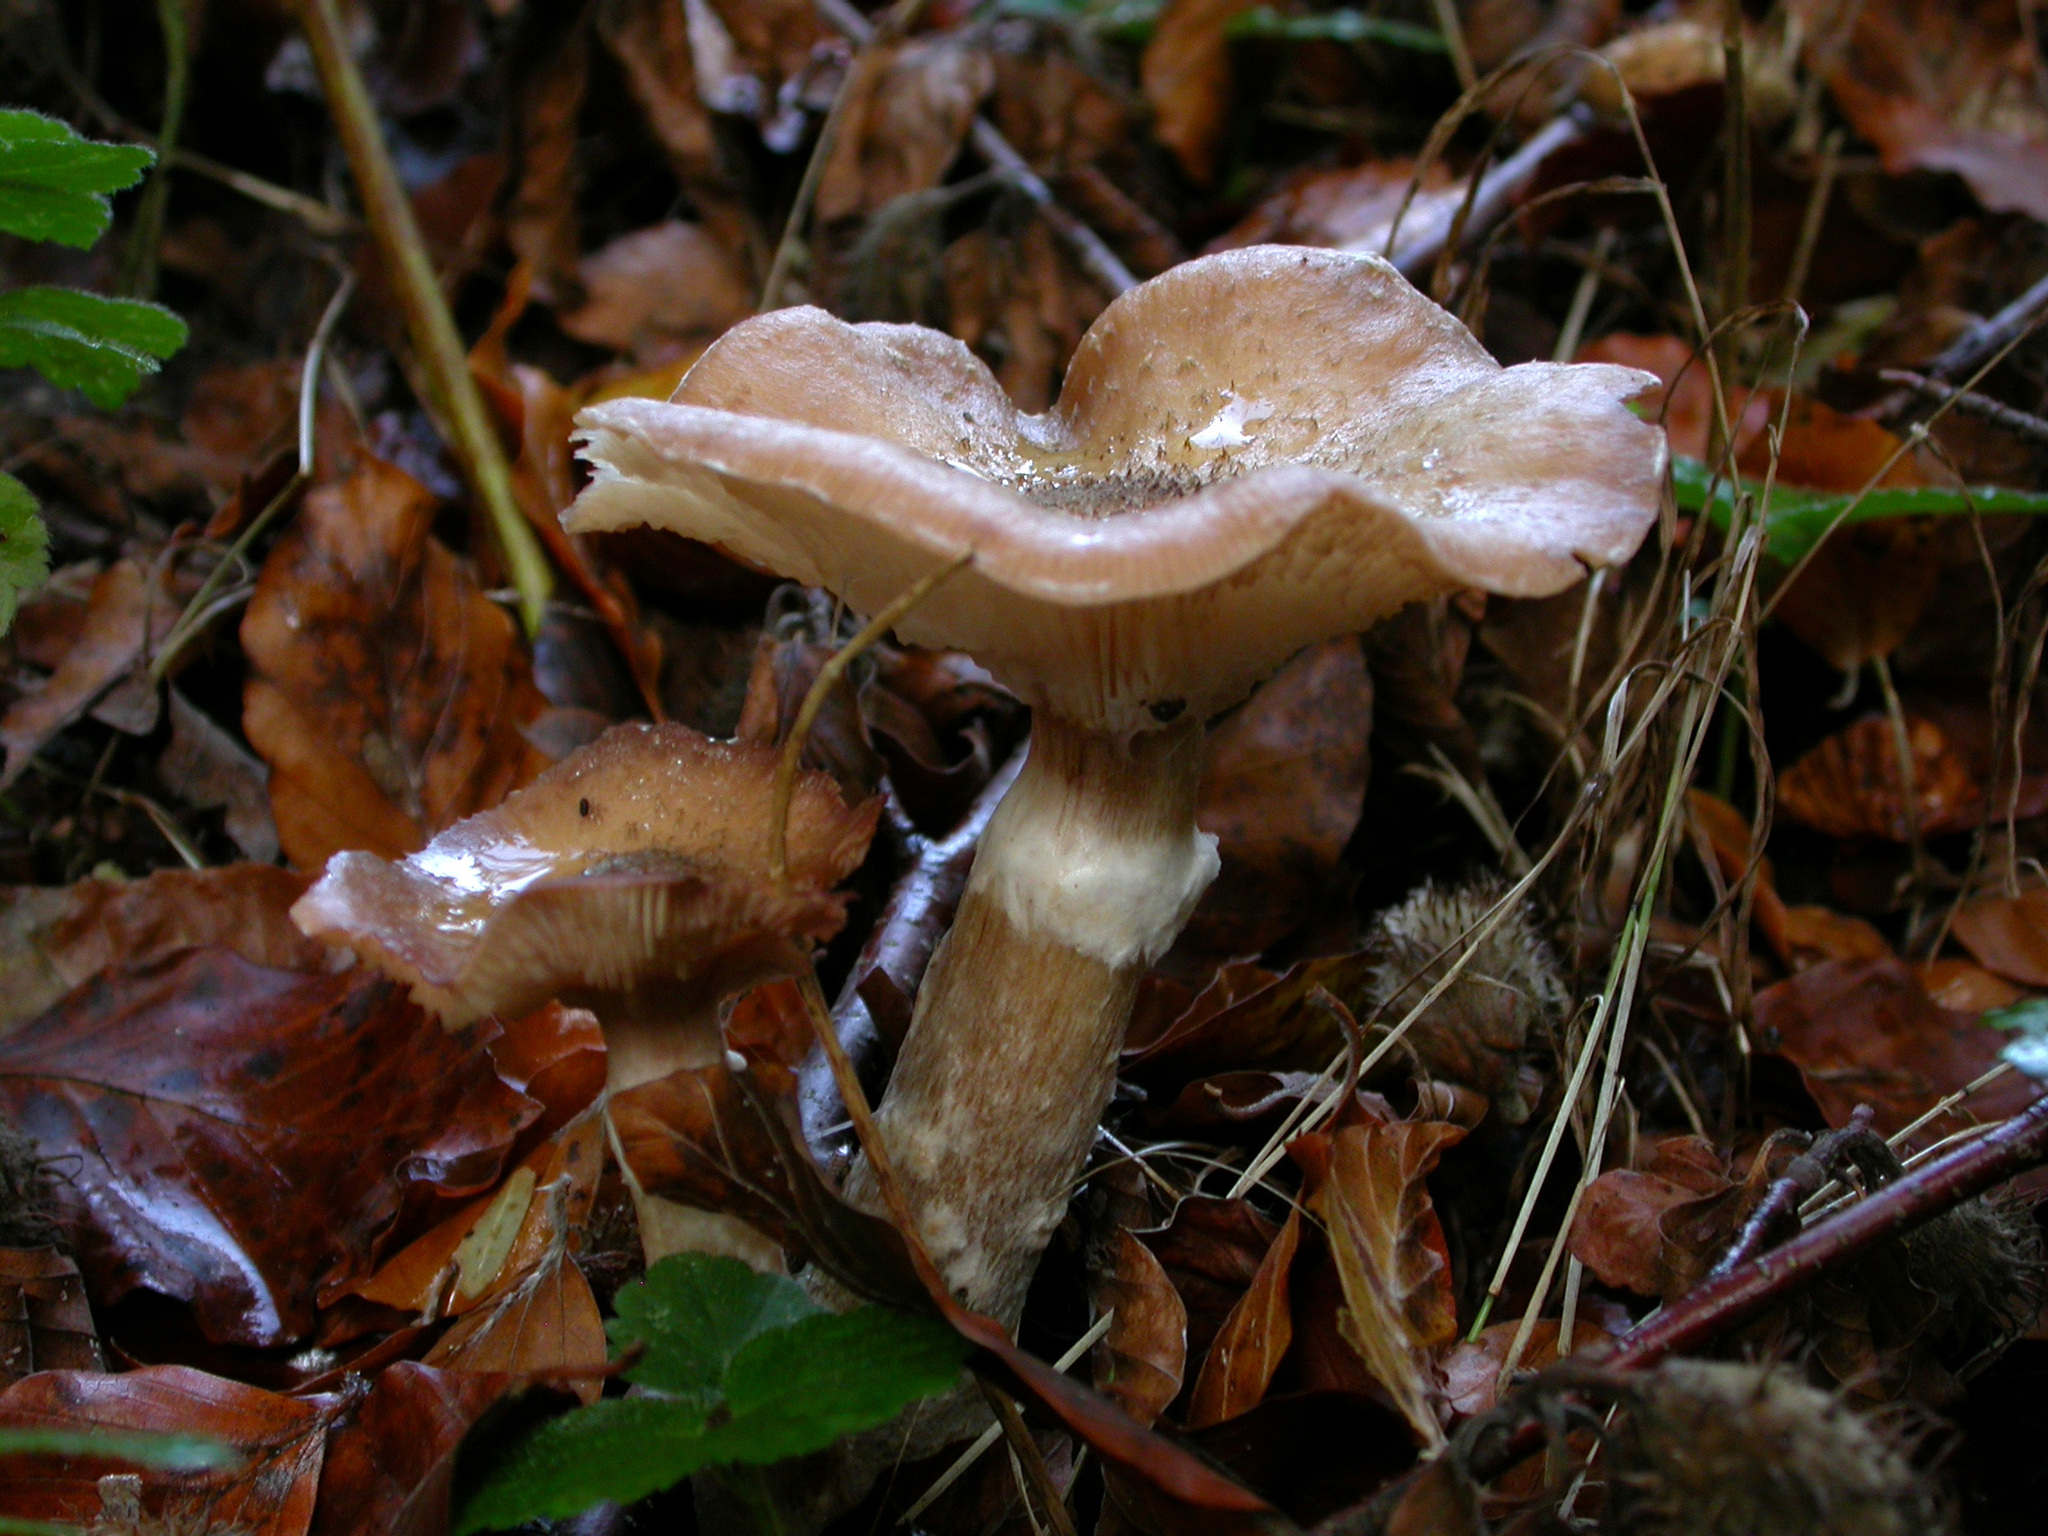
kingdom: Fungi
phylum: Basidiomycota
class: Agaricomycetes
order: Agaricales
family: Physalacriaceae
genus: Armillaria
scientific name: Armillaria cepistipes
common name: Mullet honey fungus
